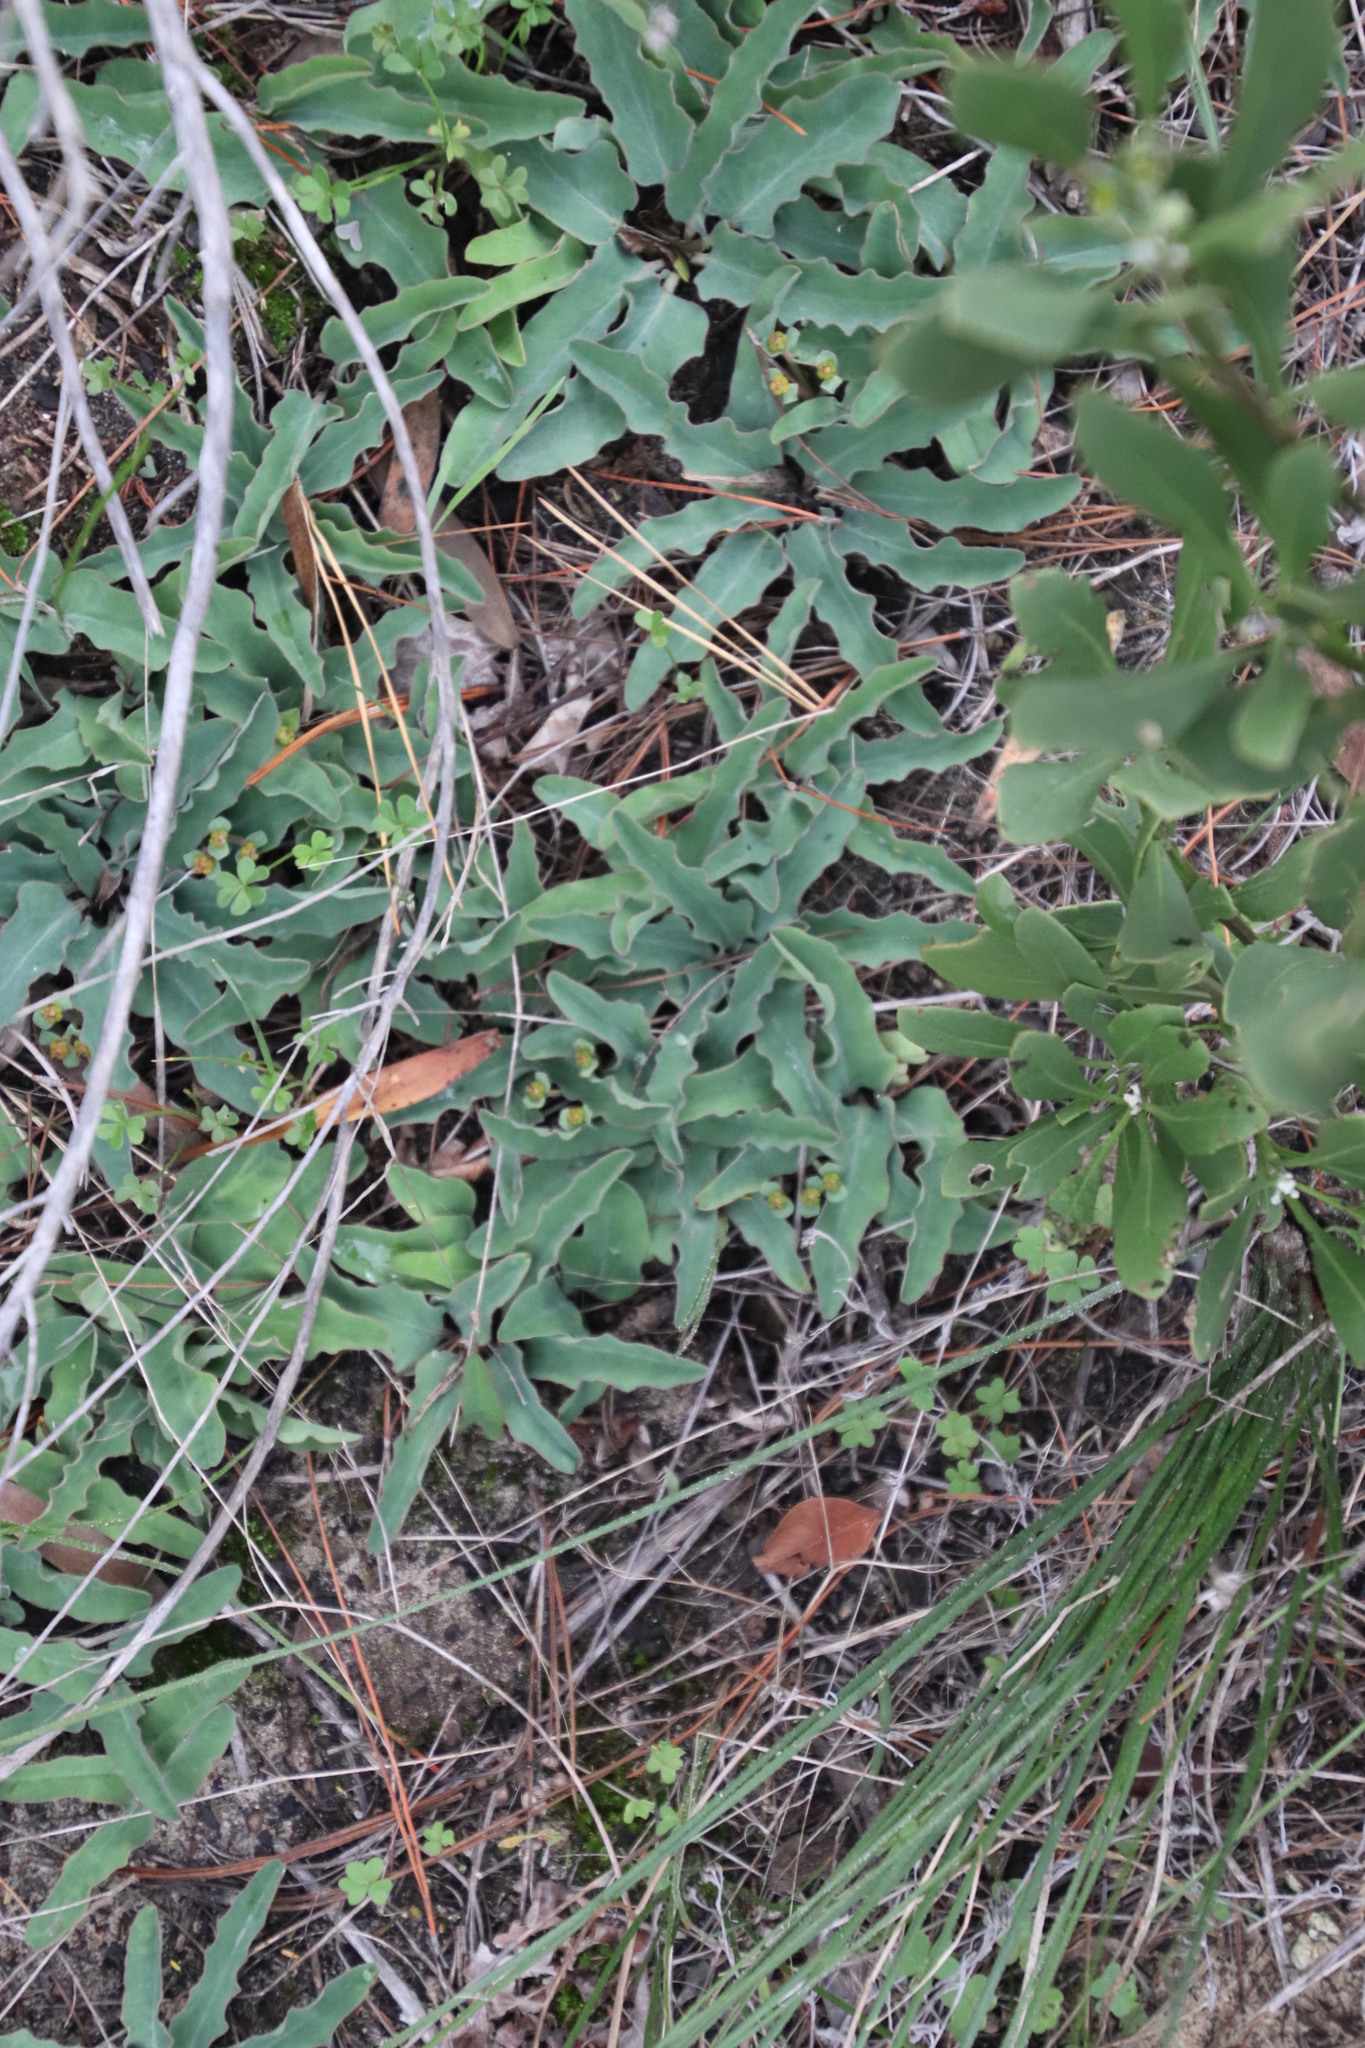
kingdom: Plantae
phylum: Tracheophyta
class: Magnoliopsida
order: Malpighiales
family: Euphorbiaceae
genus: Euphorbia
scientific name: Euphorbia tuberosa
